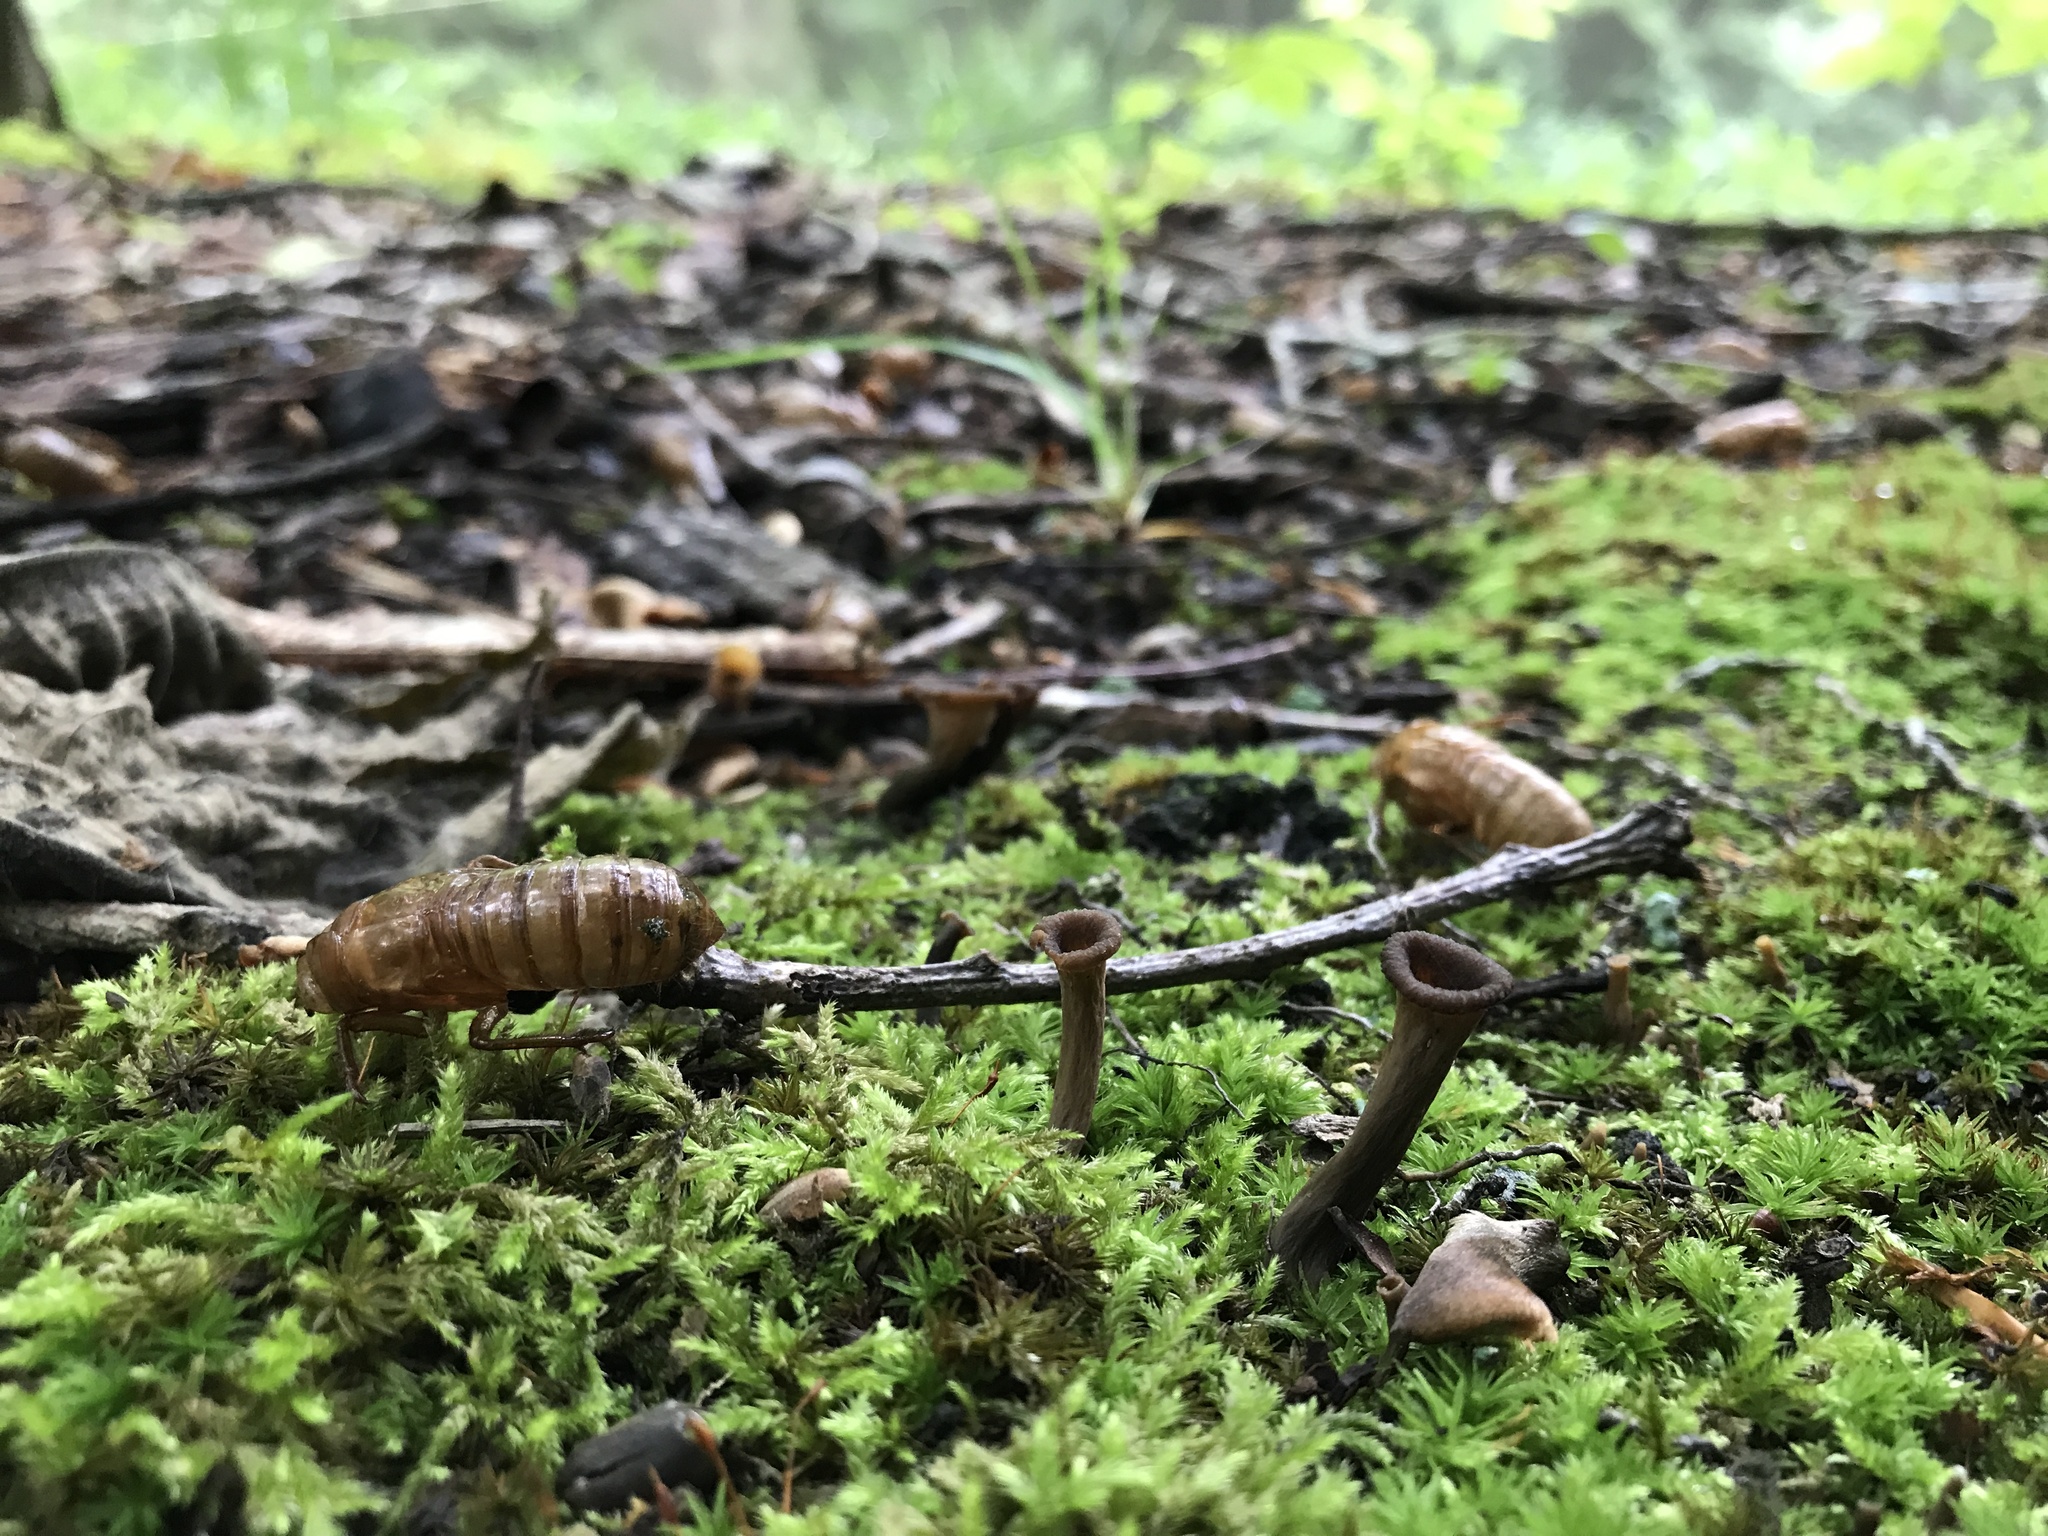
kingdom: Fungi
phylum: Basidiomycota
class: Agaricomycetes
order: Cantharellales
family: Hydnaceae
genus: Craterellus
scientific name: Craterellus cornucopioides
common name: Horn of plenty
